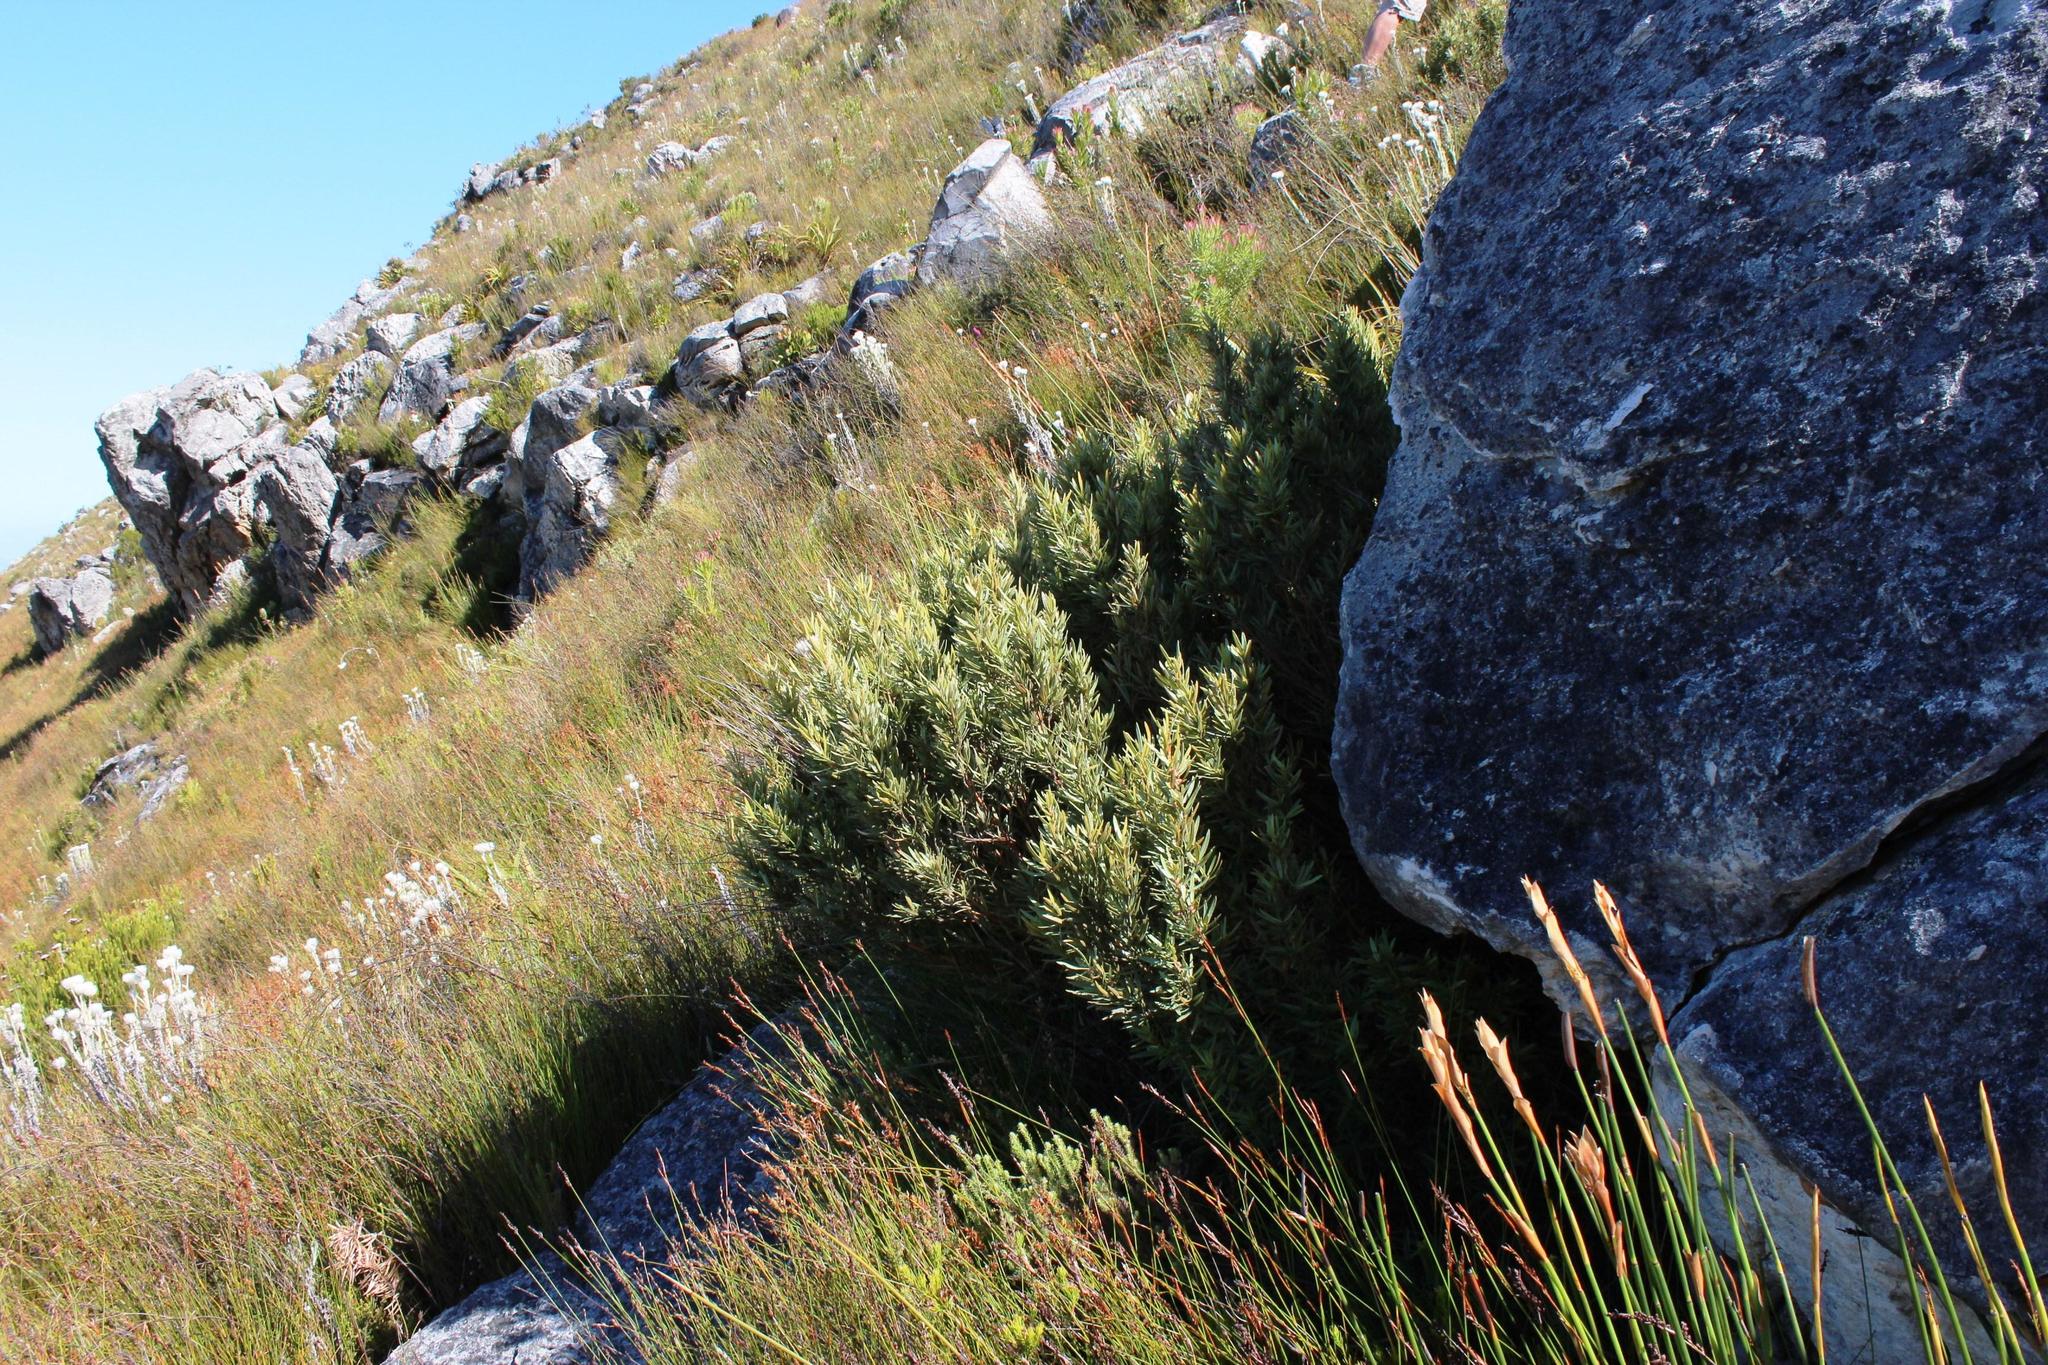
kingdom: Plantae
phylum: Tracheophyta
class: Magnoliopsida
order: Cornales
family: Grubbiaceae
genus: Grubbia
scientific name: Grubbia tomentosa
